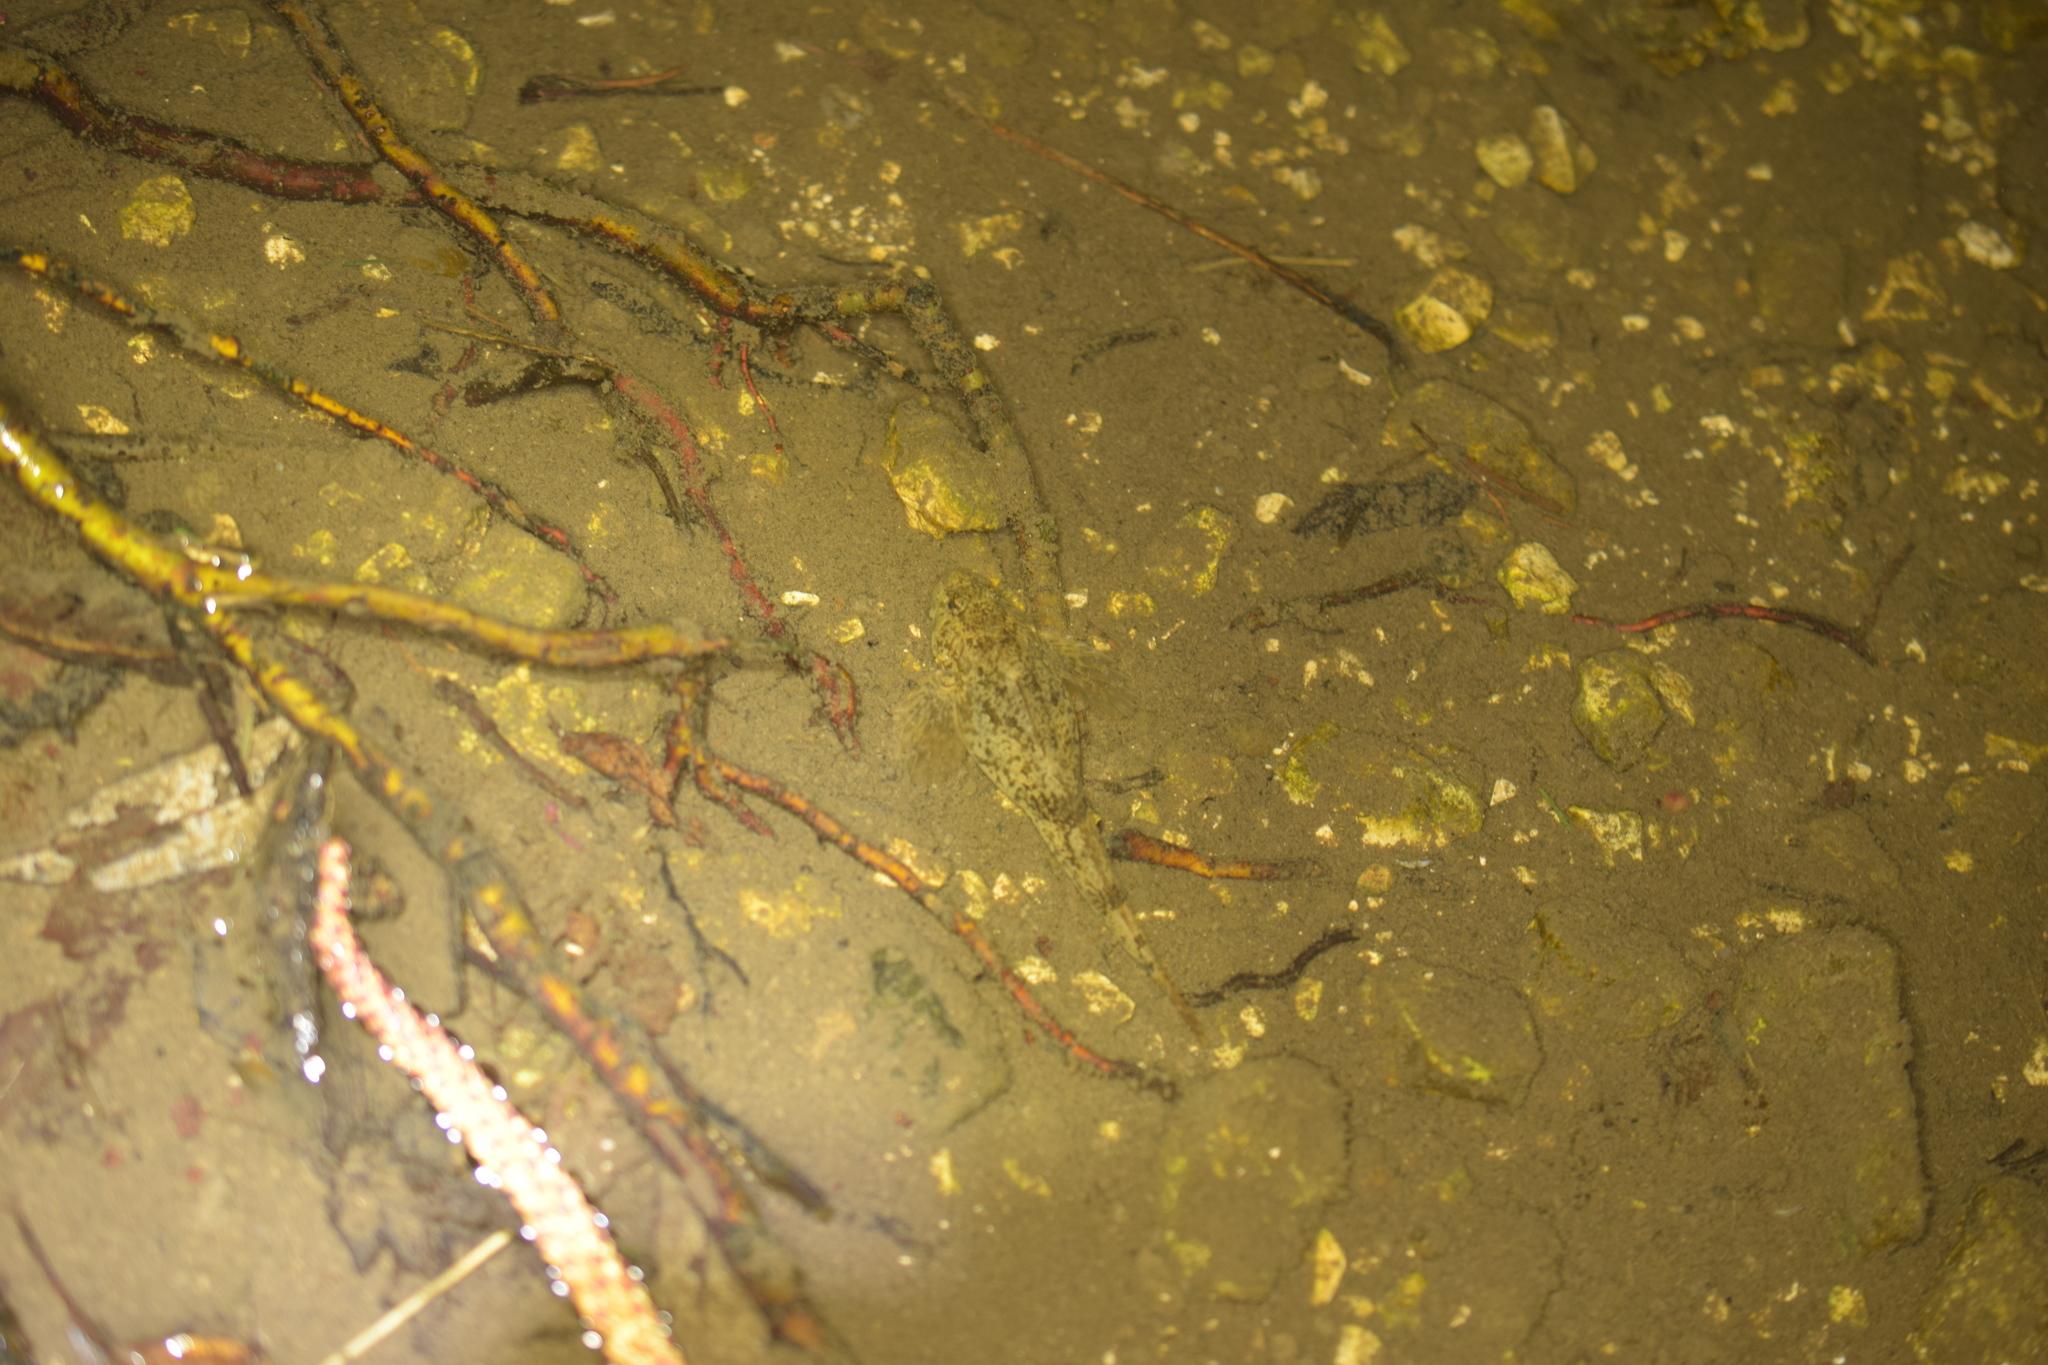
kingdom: Animalia
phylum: Chordata
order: Scorpaeniformes
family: Cottidae
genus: Cottus
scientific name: Cottus gobio
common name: Bullhead
